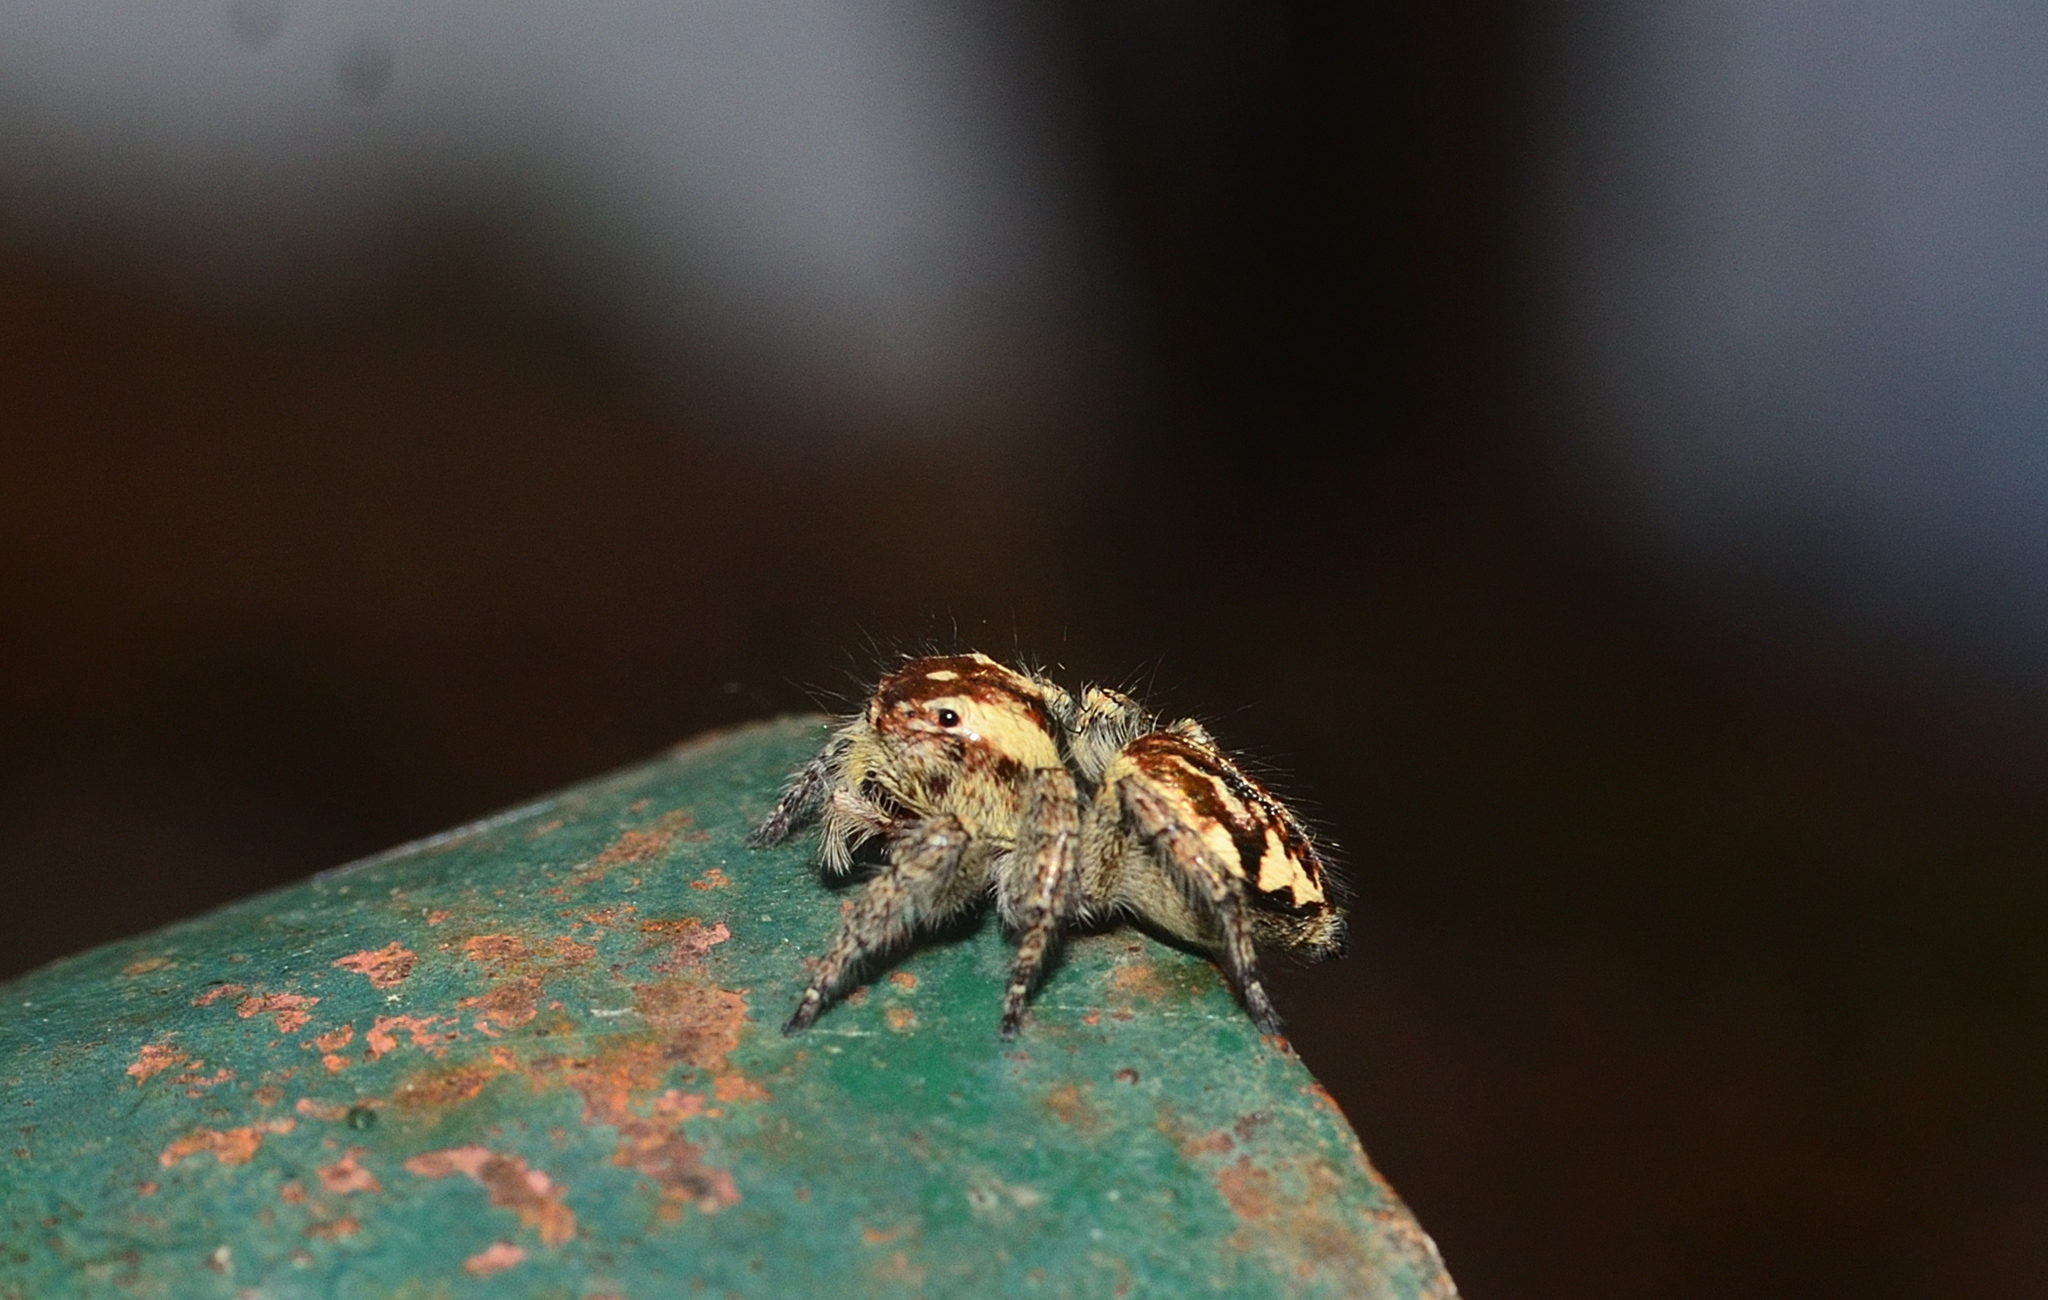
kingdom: Animalia
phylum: Arthropoda
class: Arachnida
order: Araneae
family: Salticidae
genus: Carrhotus
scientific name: Carrhotus viduus
